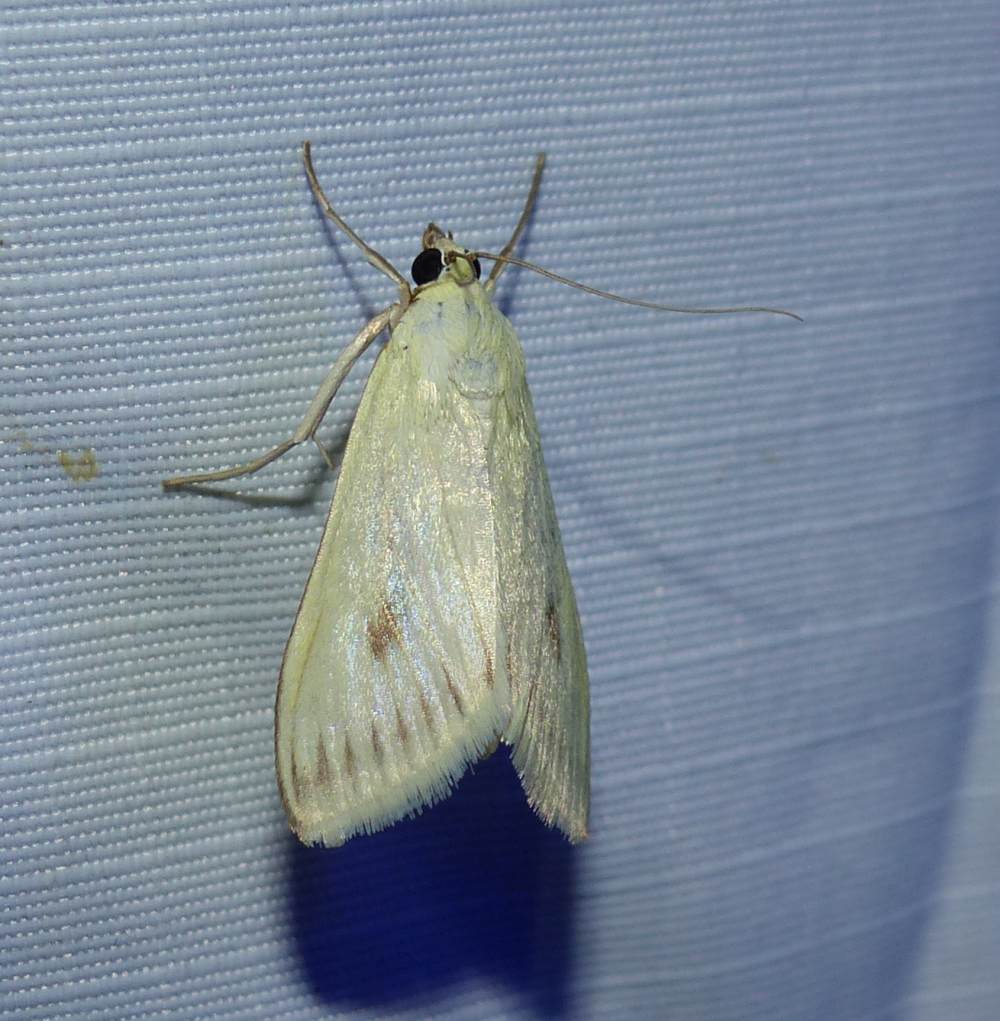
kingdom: Animalia
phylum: Arthropoda
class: Insecta
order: Lepidoptera
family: Crambidae
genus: Sitochroa
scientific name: Sitochroa palealis
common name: Greenish-yellow sitochroa moth
